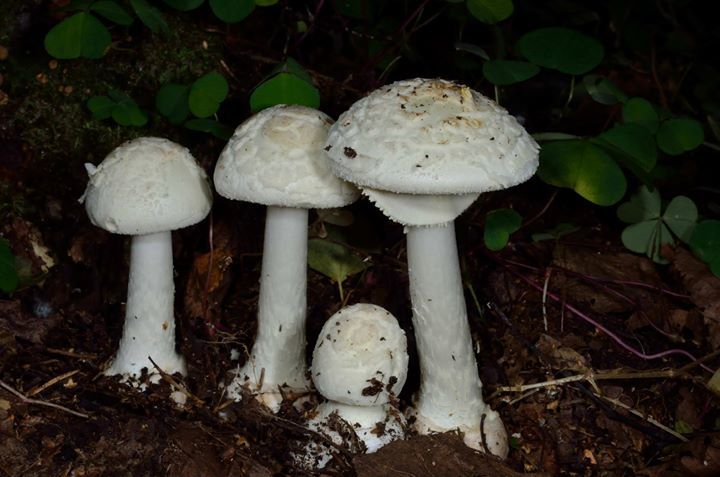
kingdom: Fungi
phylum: Basidiomycota
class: Agaricomycetes
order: Agaricales
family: Amanitaceae
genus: Amanita
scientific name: Amanita citrina
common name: False death-cap
